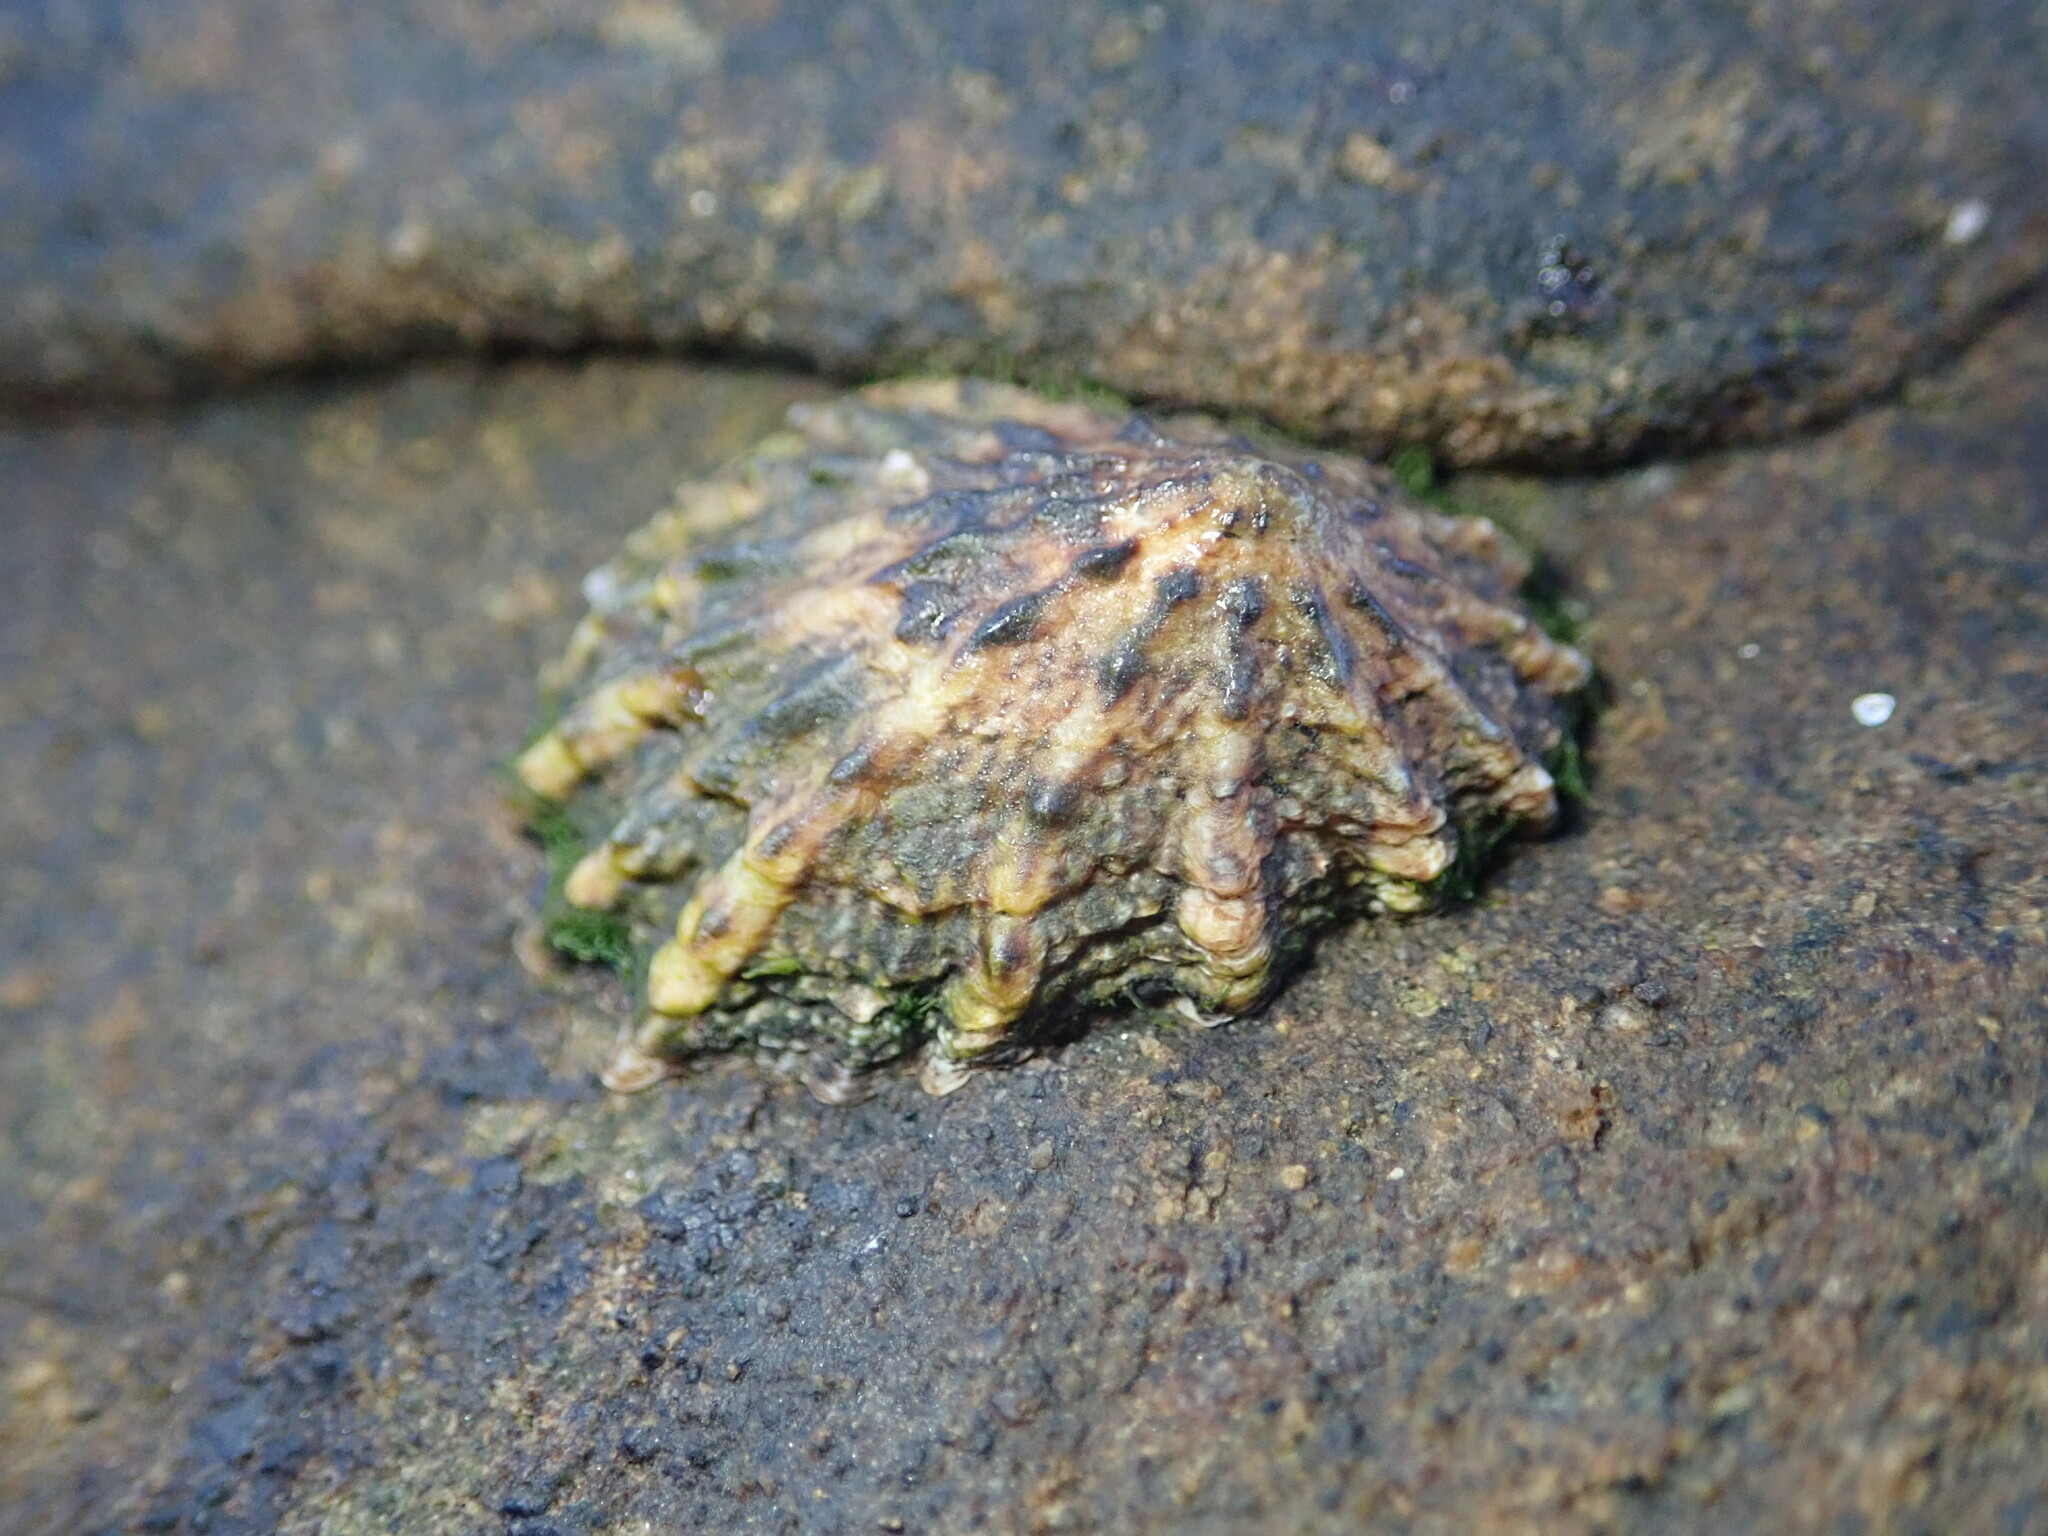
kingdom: Animalia
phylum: Mollusca
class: Gastropoda
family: Lottiidae
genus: Lottia
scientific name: Lottia scabra
